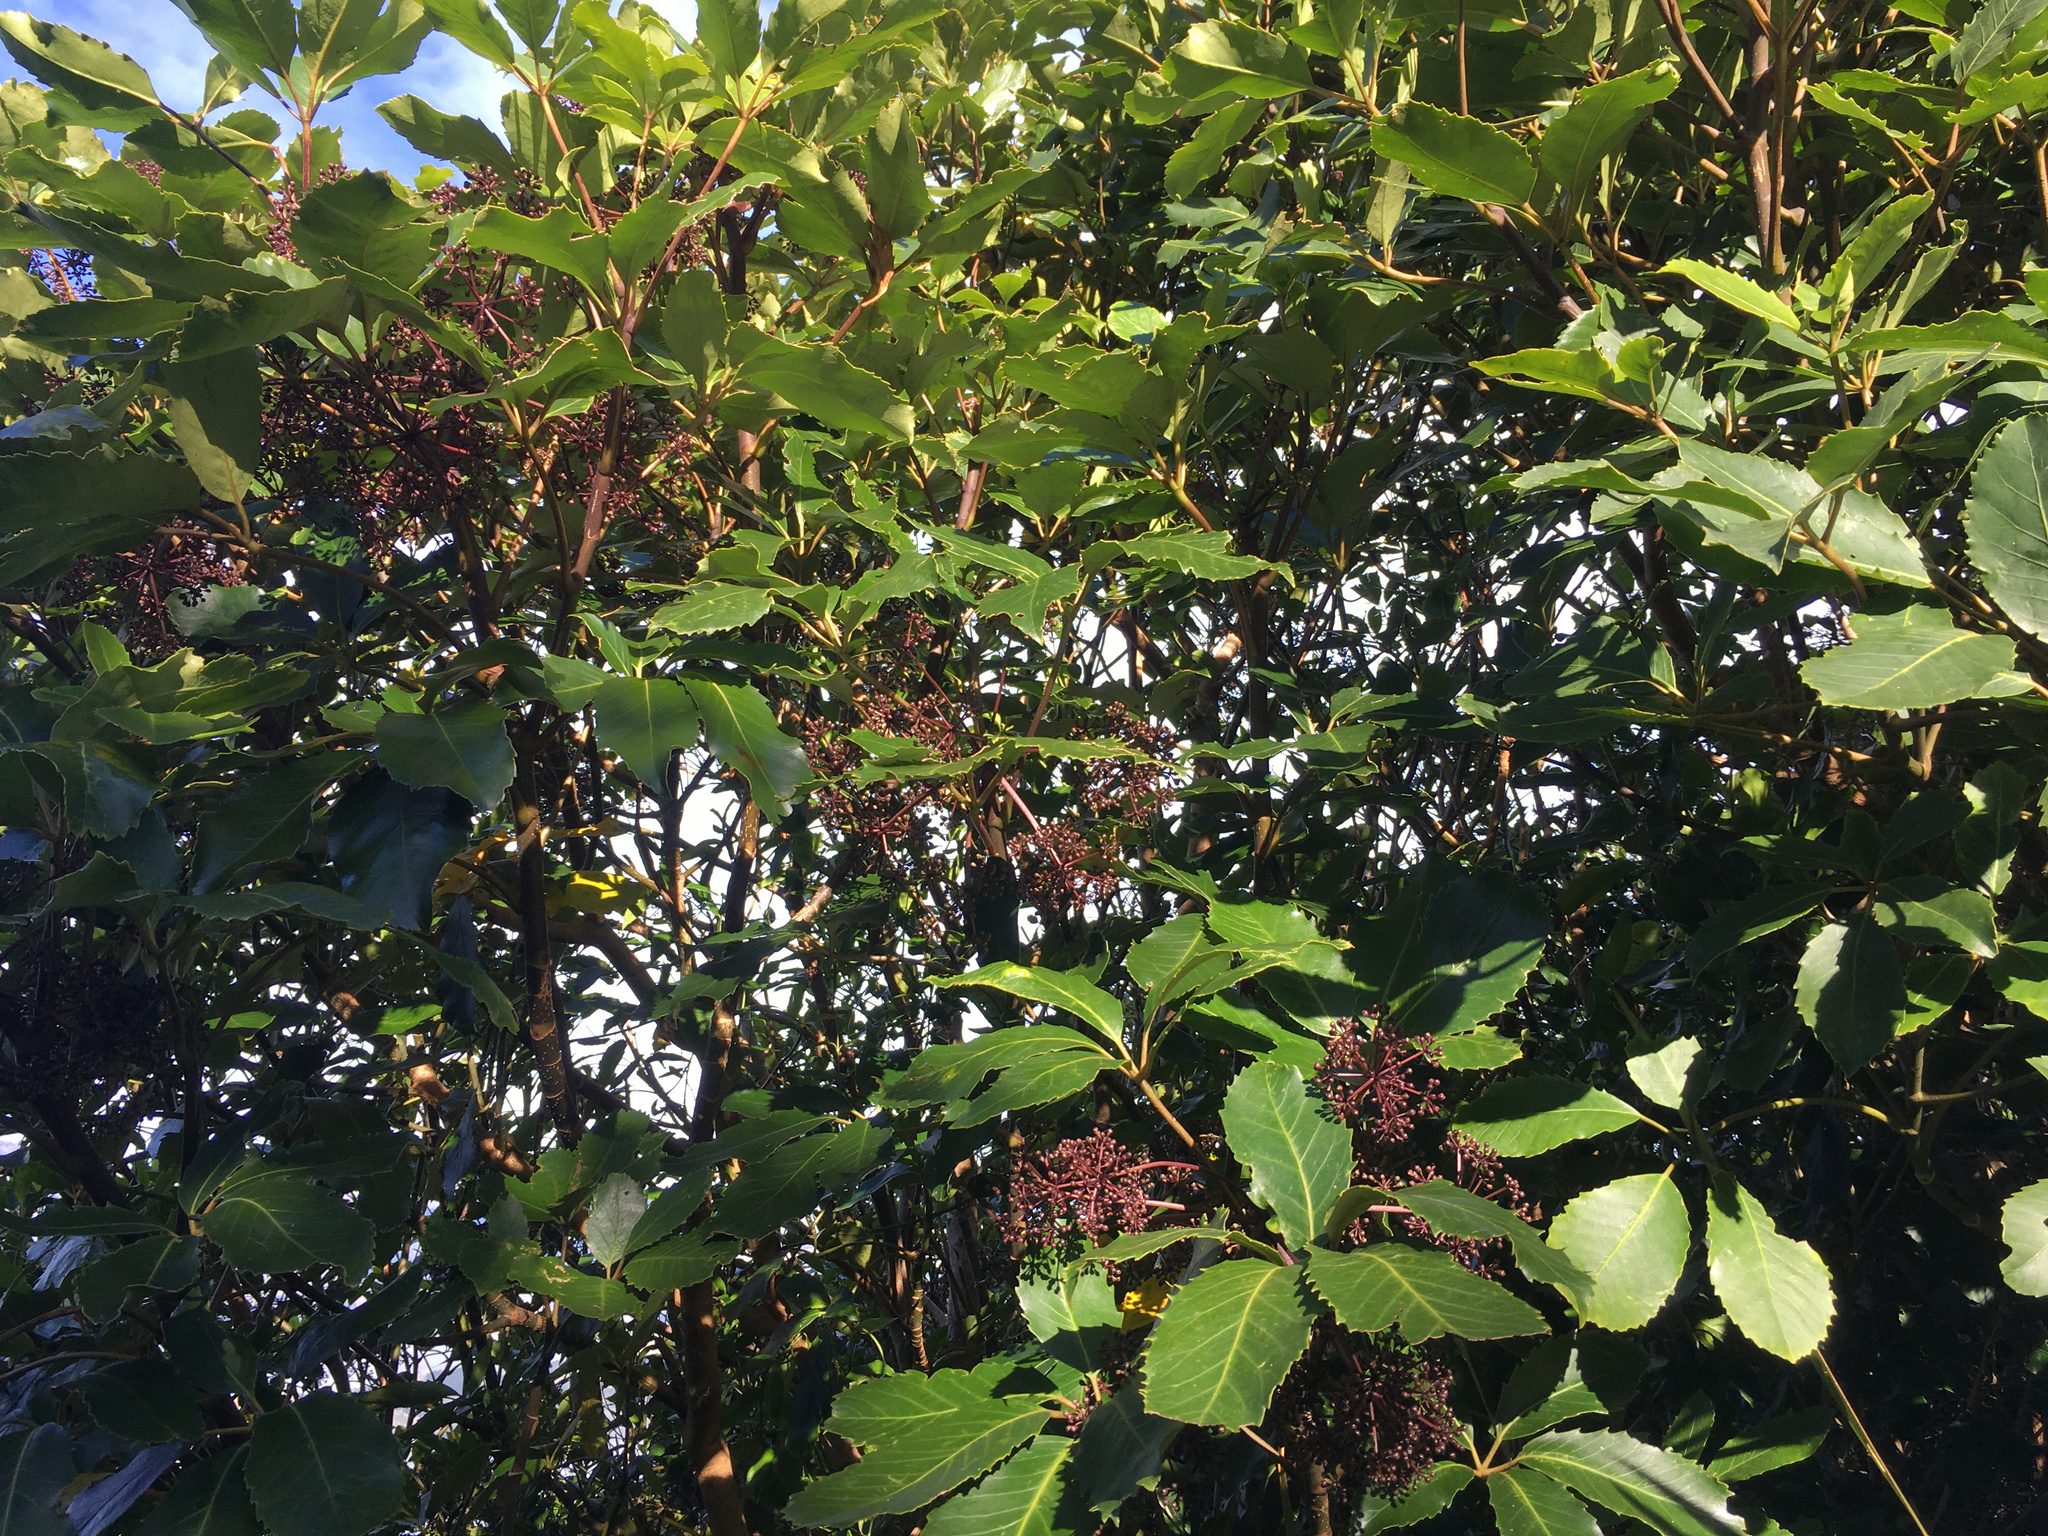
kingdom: Plantae
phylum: Tracheophyta
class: Magnoliopsida
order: Apiales
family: Araliaceae
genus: Neopanax
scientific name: Neopanax arboreus
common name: Five-fingers
